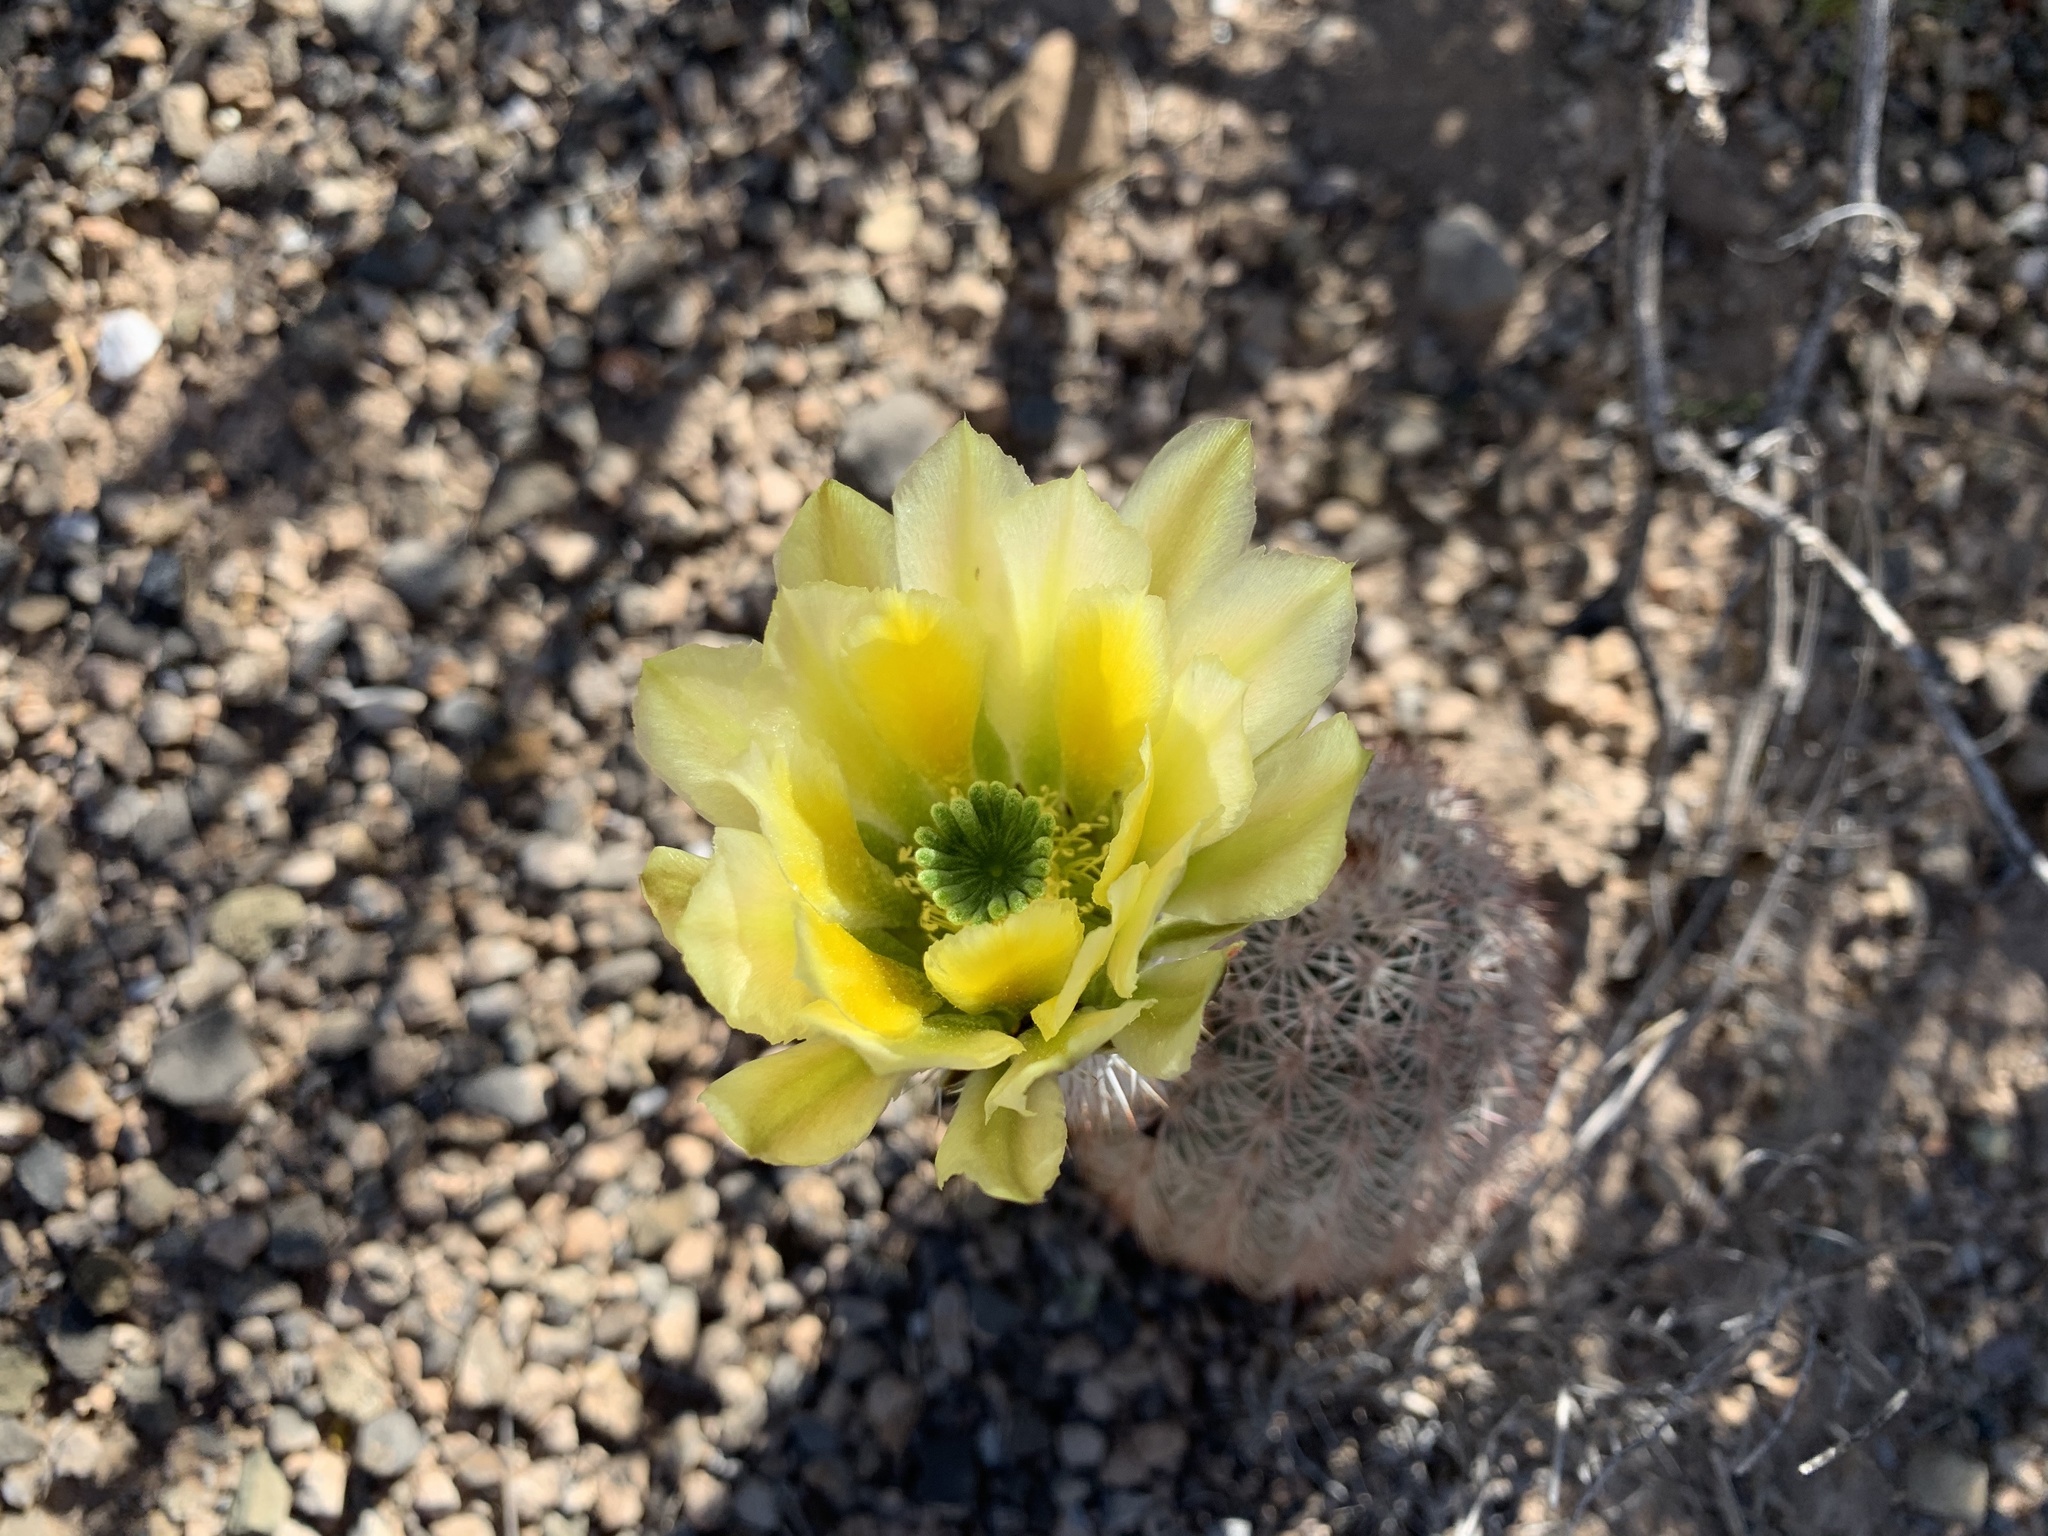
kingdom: Plantae
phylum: Tracheophyta
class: Magnoliopsida
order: Caryophyllales
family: Cactaceae
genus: Echinocereus
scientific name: Echinocereus dasyacanthus
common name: Spiny hedgehog cactus
